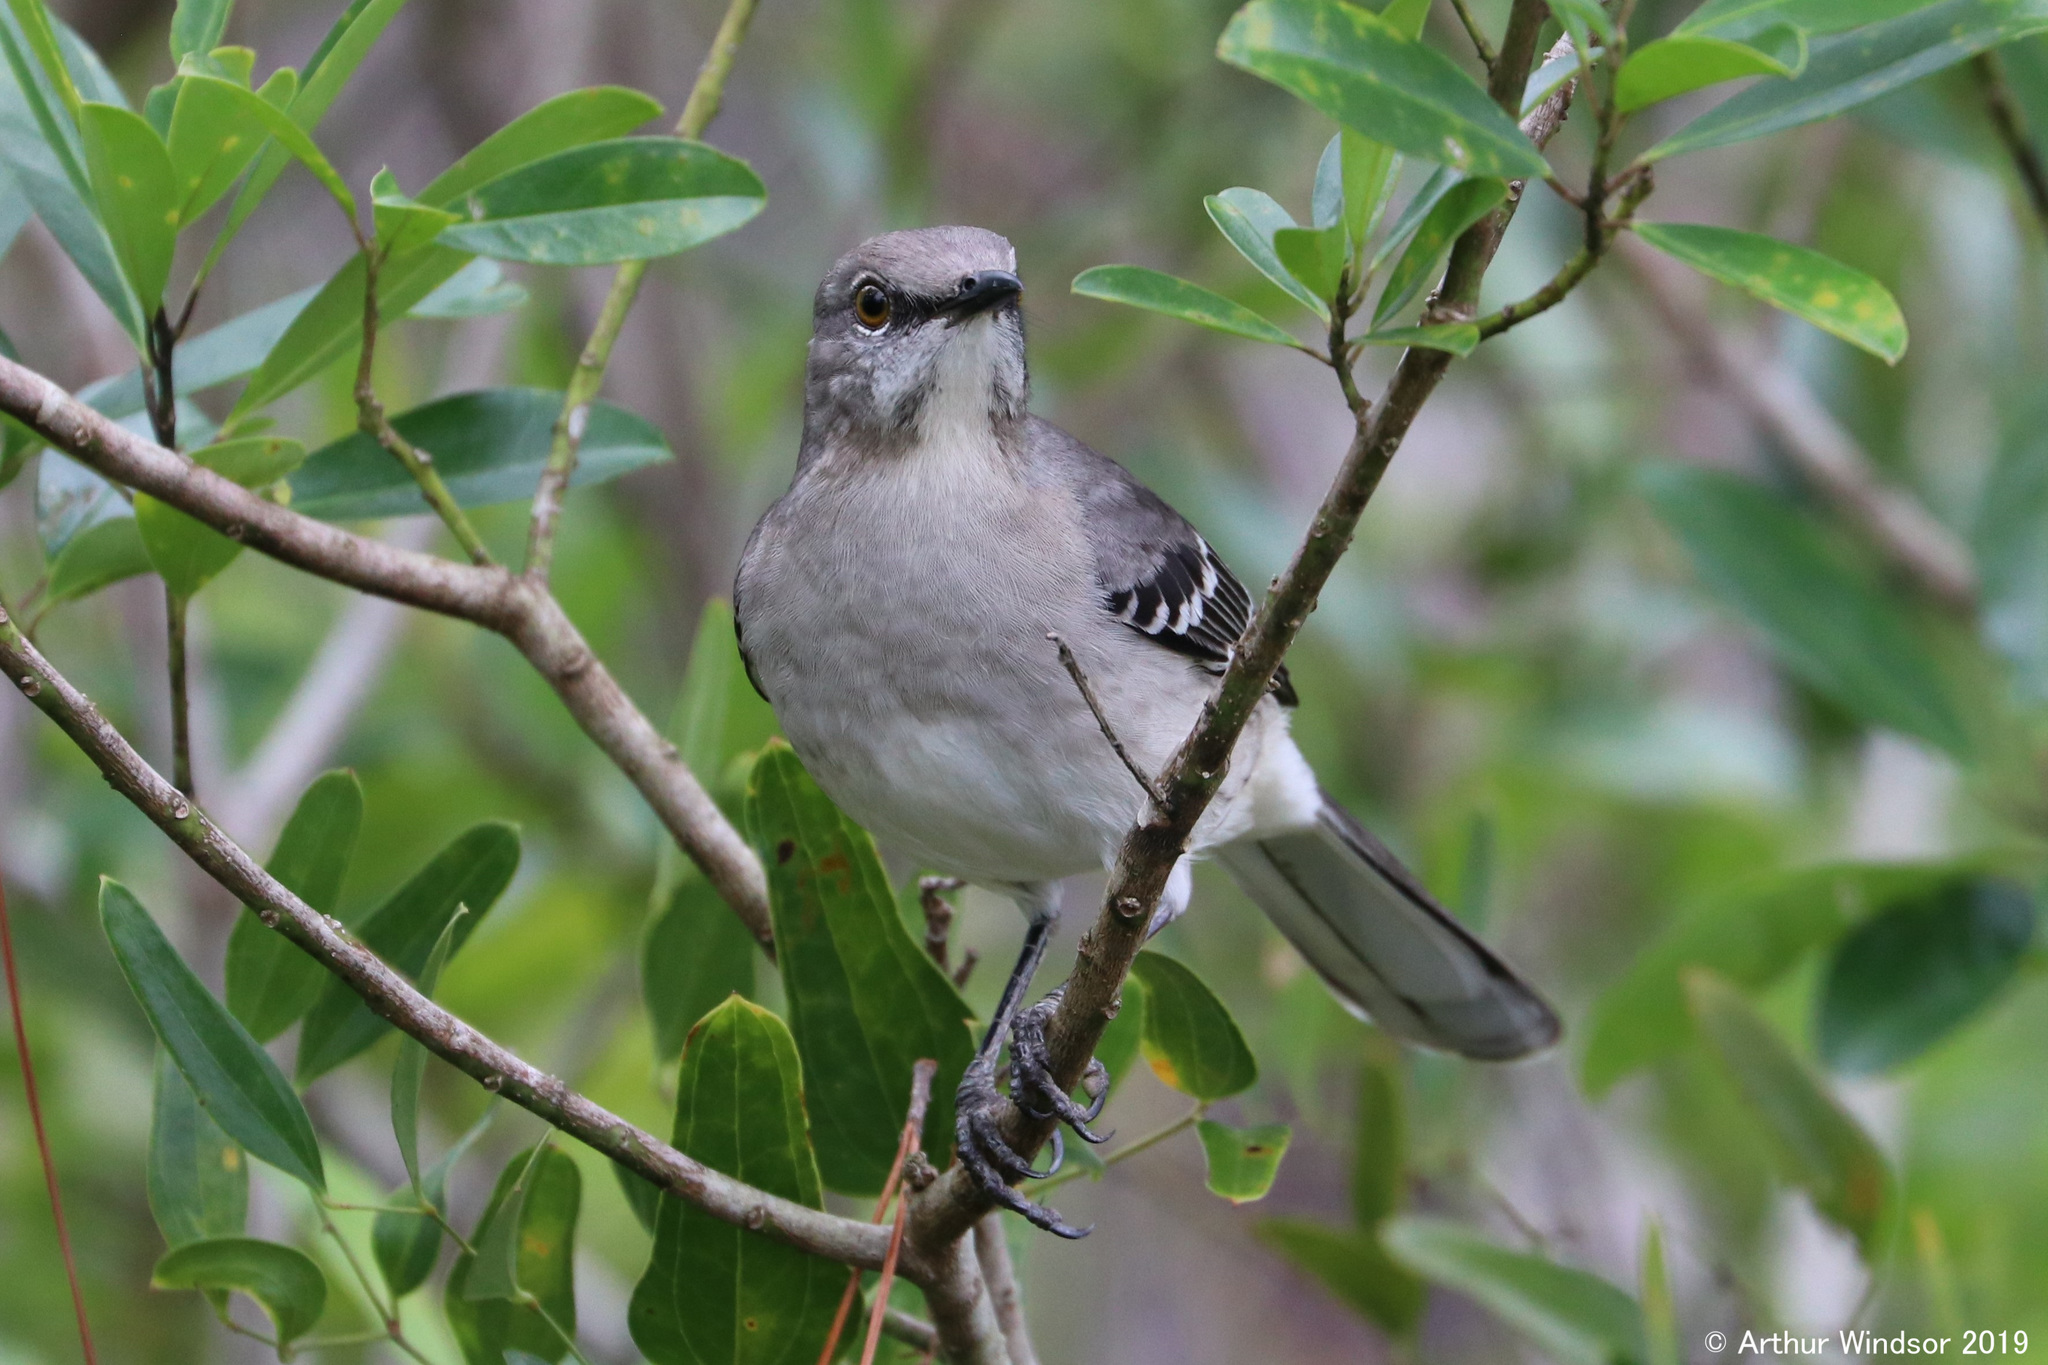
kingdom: Animalia
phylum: Chordata
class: Aves
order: Passeriformes
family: Mimidae
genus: Mimus
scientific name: Mimus polyglottos
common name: Northern mockingbird
